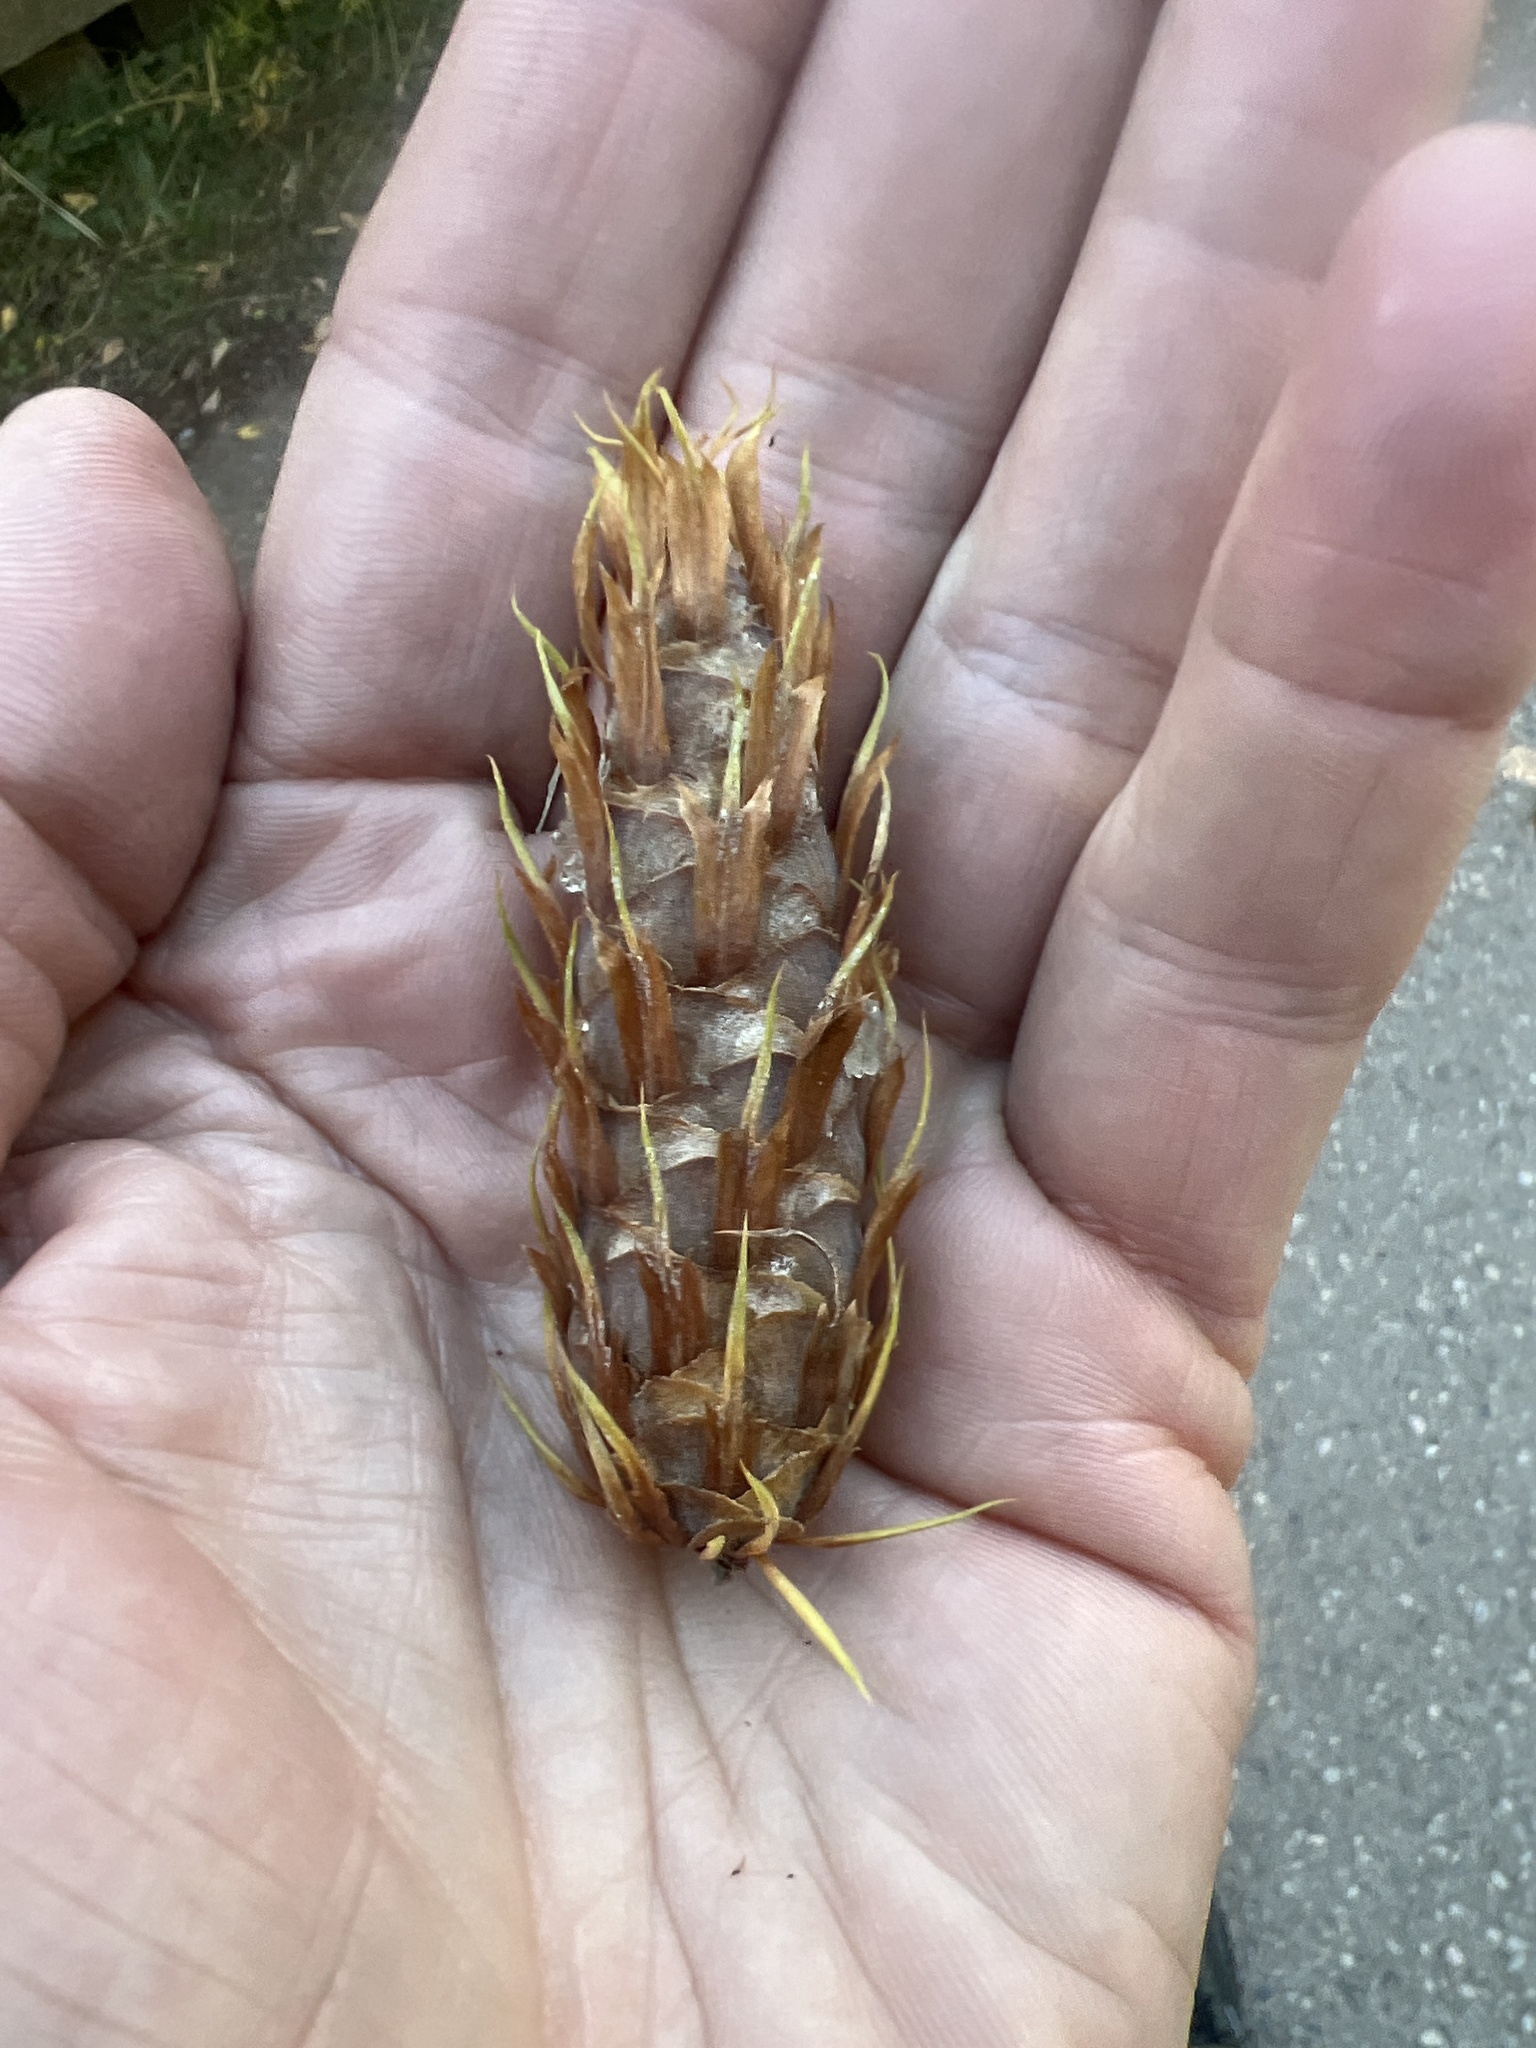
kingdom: Plantae
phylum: Tracheophyta
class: Pinopsida
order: Pinales
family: Pinaceae
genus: Pseudotsuga
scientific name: Pseudotsuga menziesii
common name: Douglas fir
